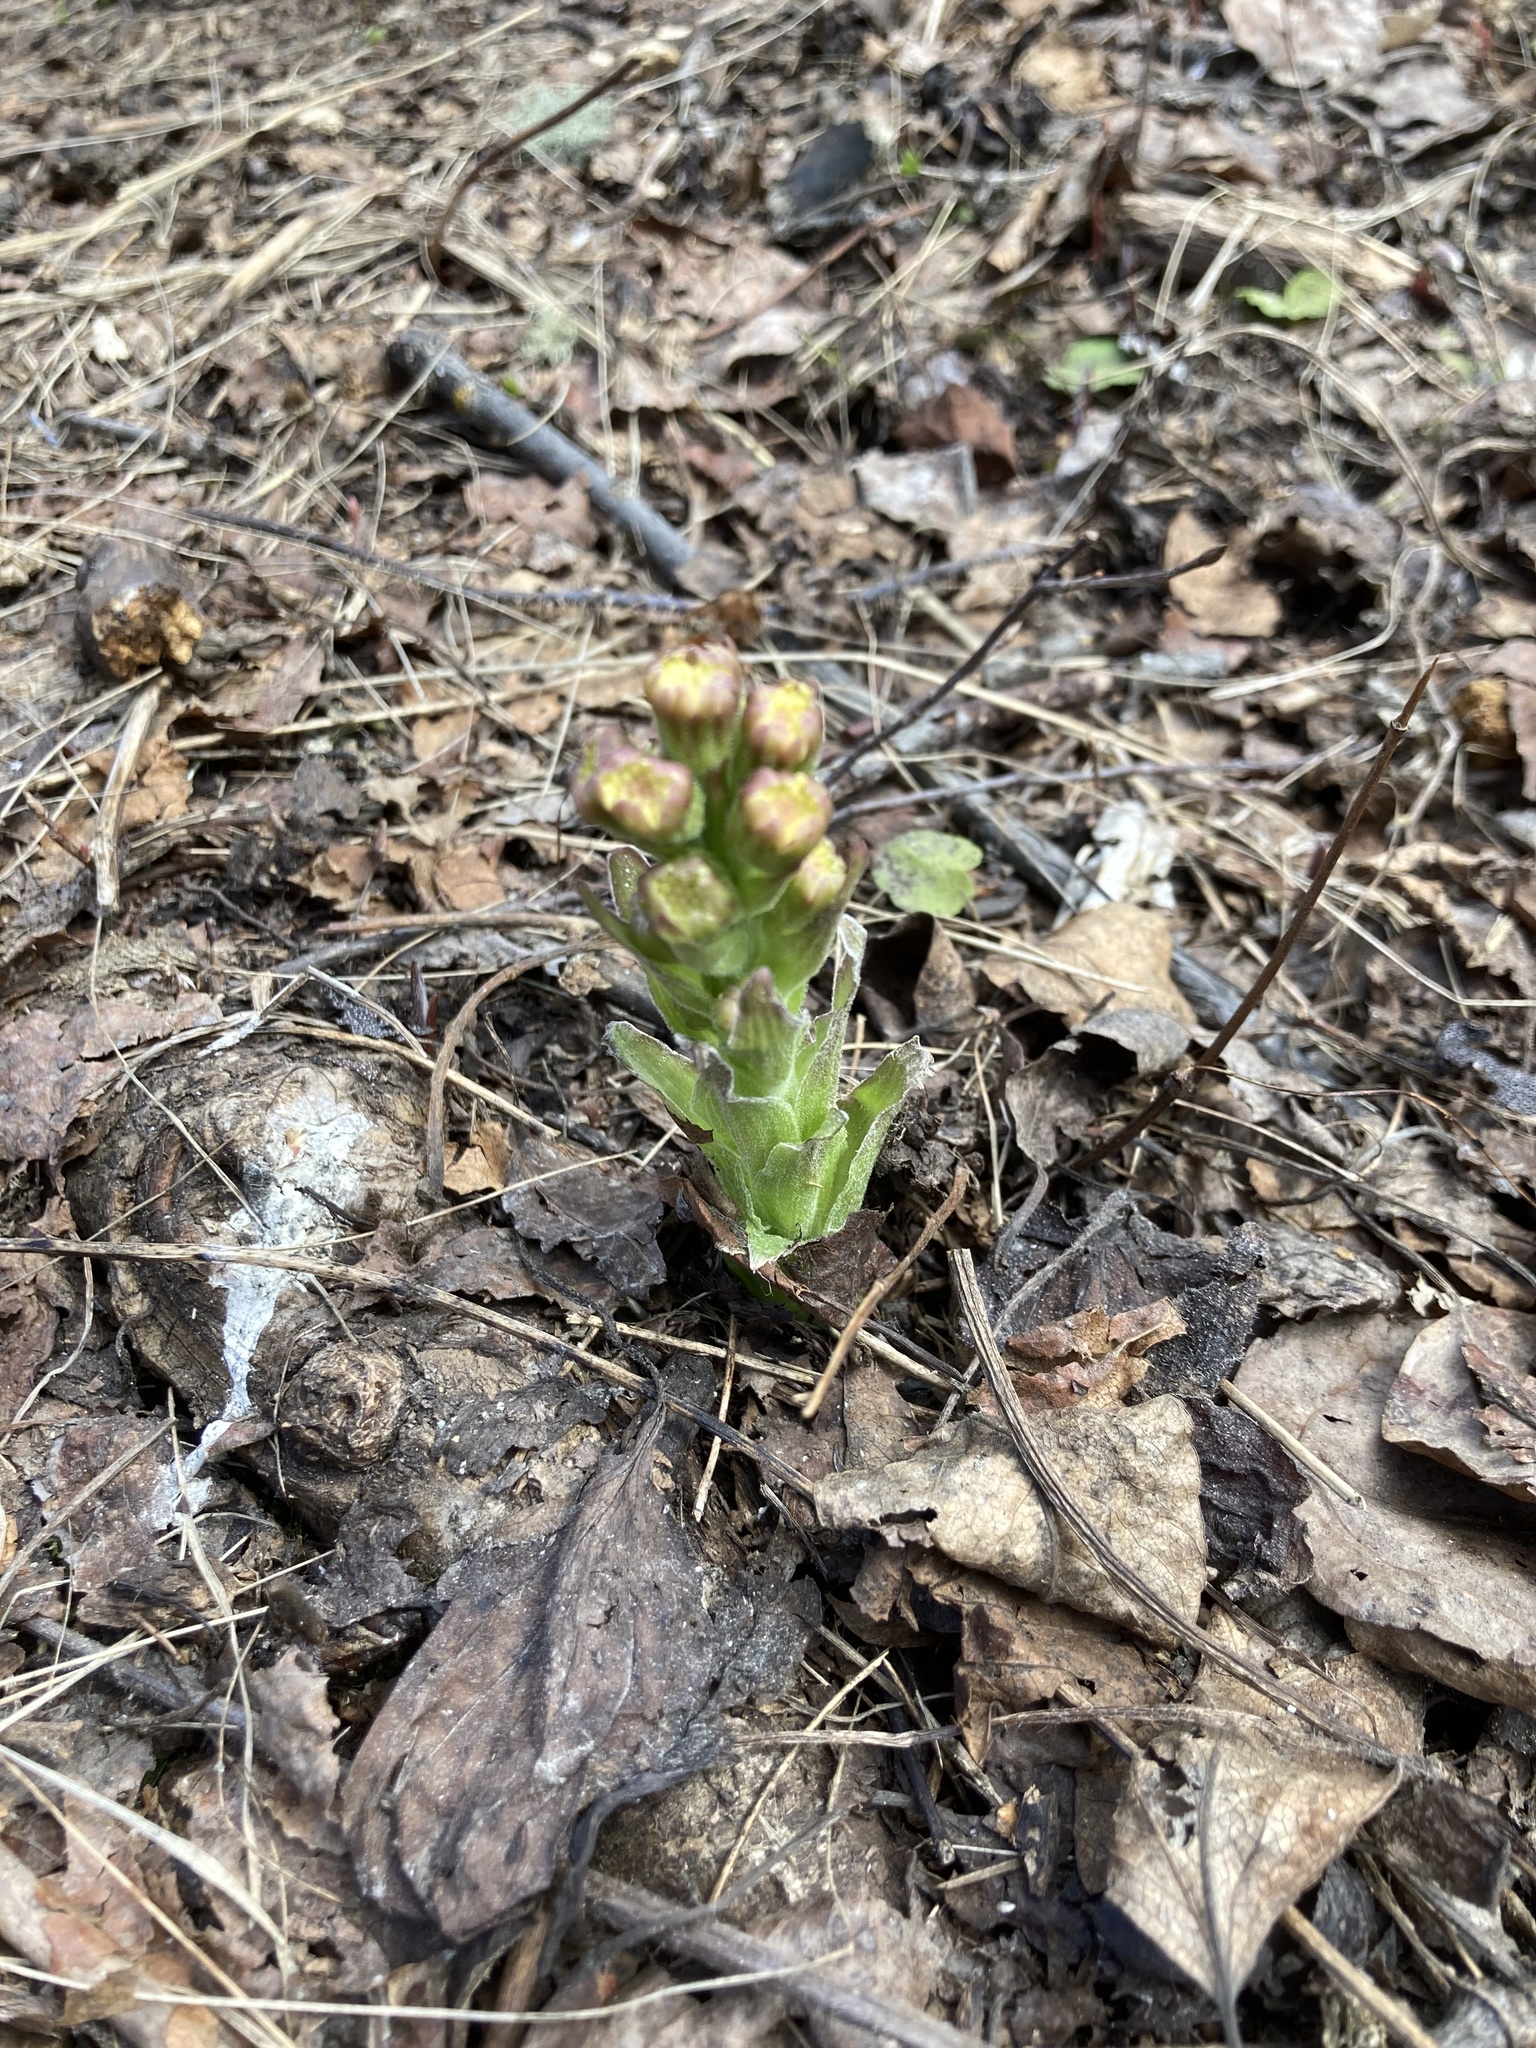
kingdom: Plantae
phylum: Tracheophyta
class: Magnoliopsida
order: Asterales
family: Asteraceae
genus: Petasites
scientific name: Petasites frigidus
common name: Arctic butterbur
